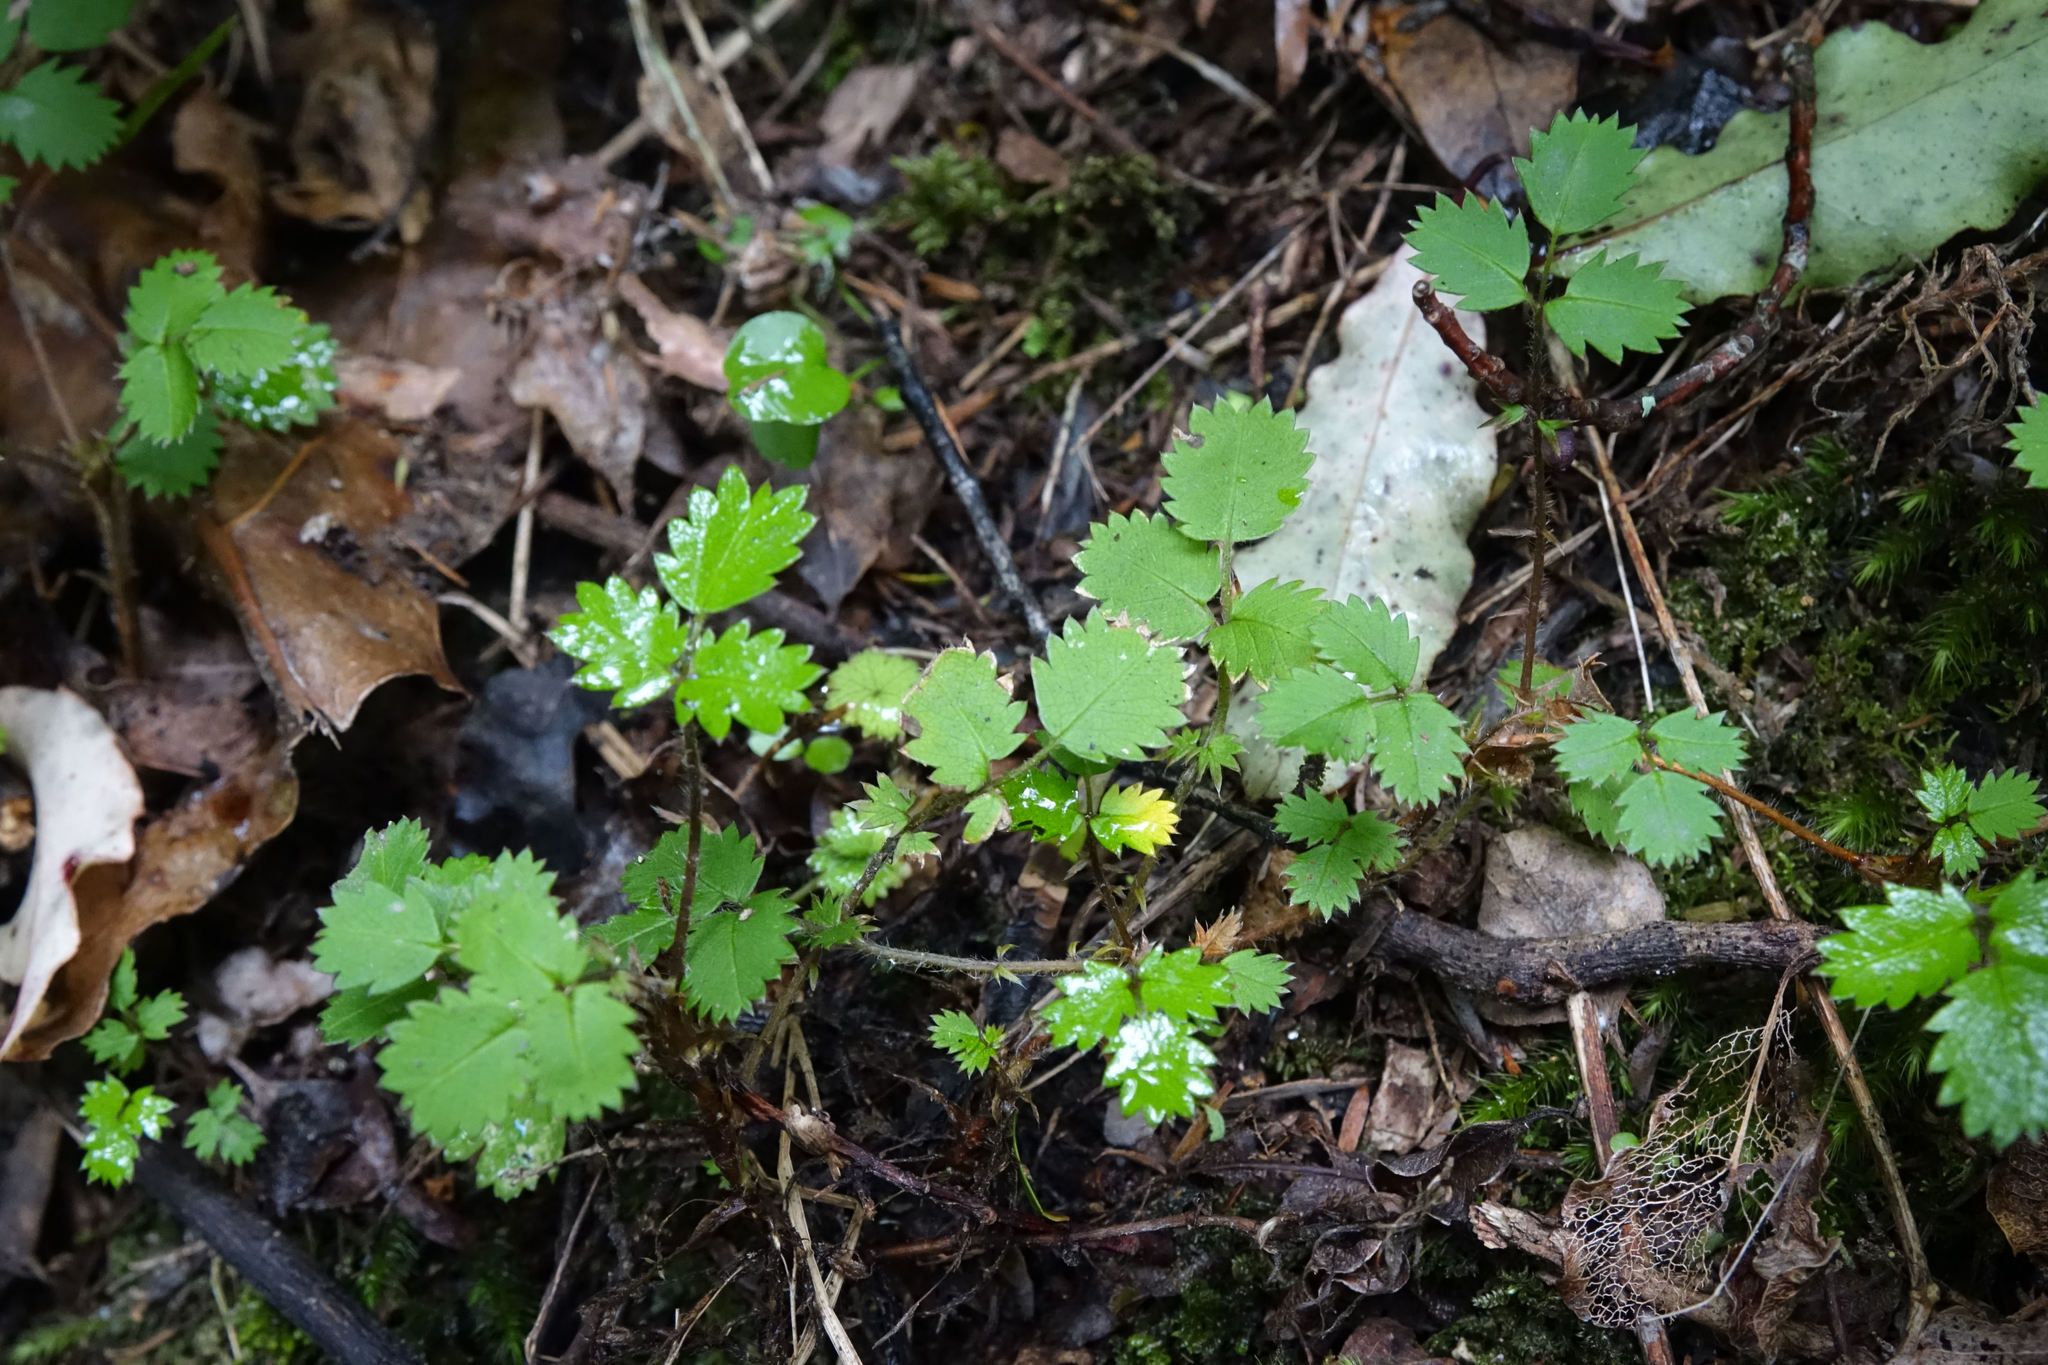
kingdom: Plantae
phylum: Tracheophyta
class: Magnoliopsida
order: Rosales
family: Rosaceae
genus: Acaena
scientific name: Acaena juvenca
